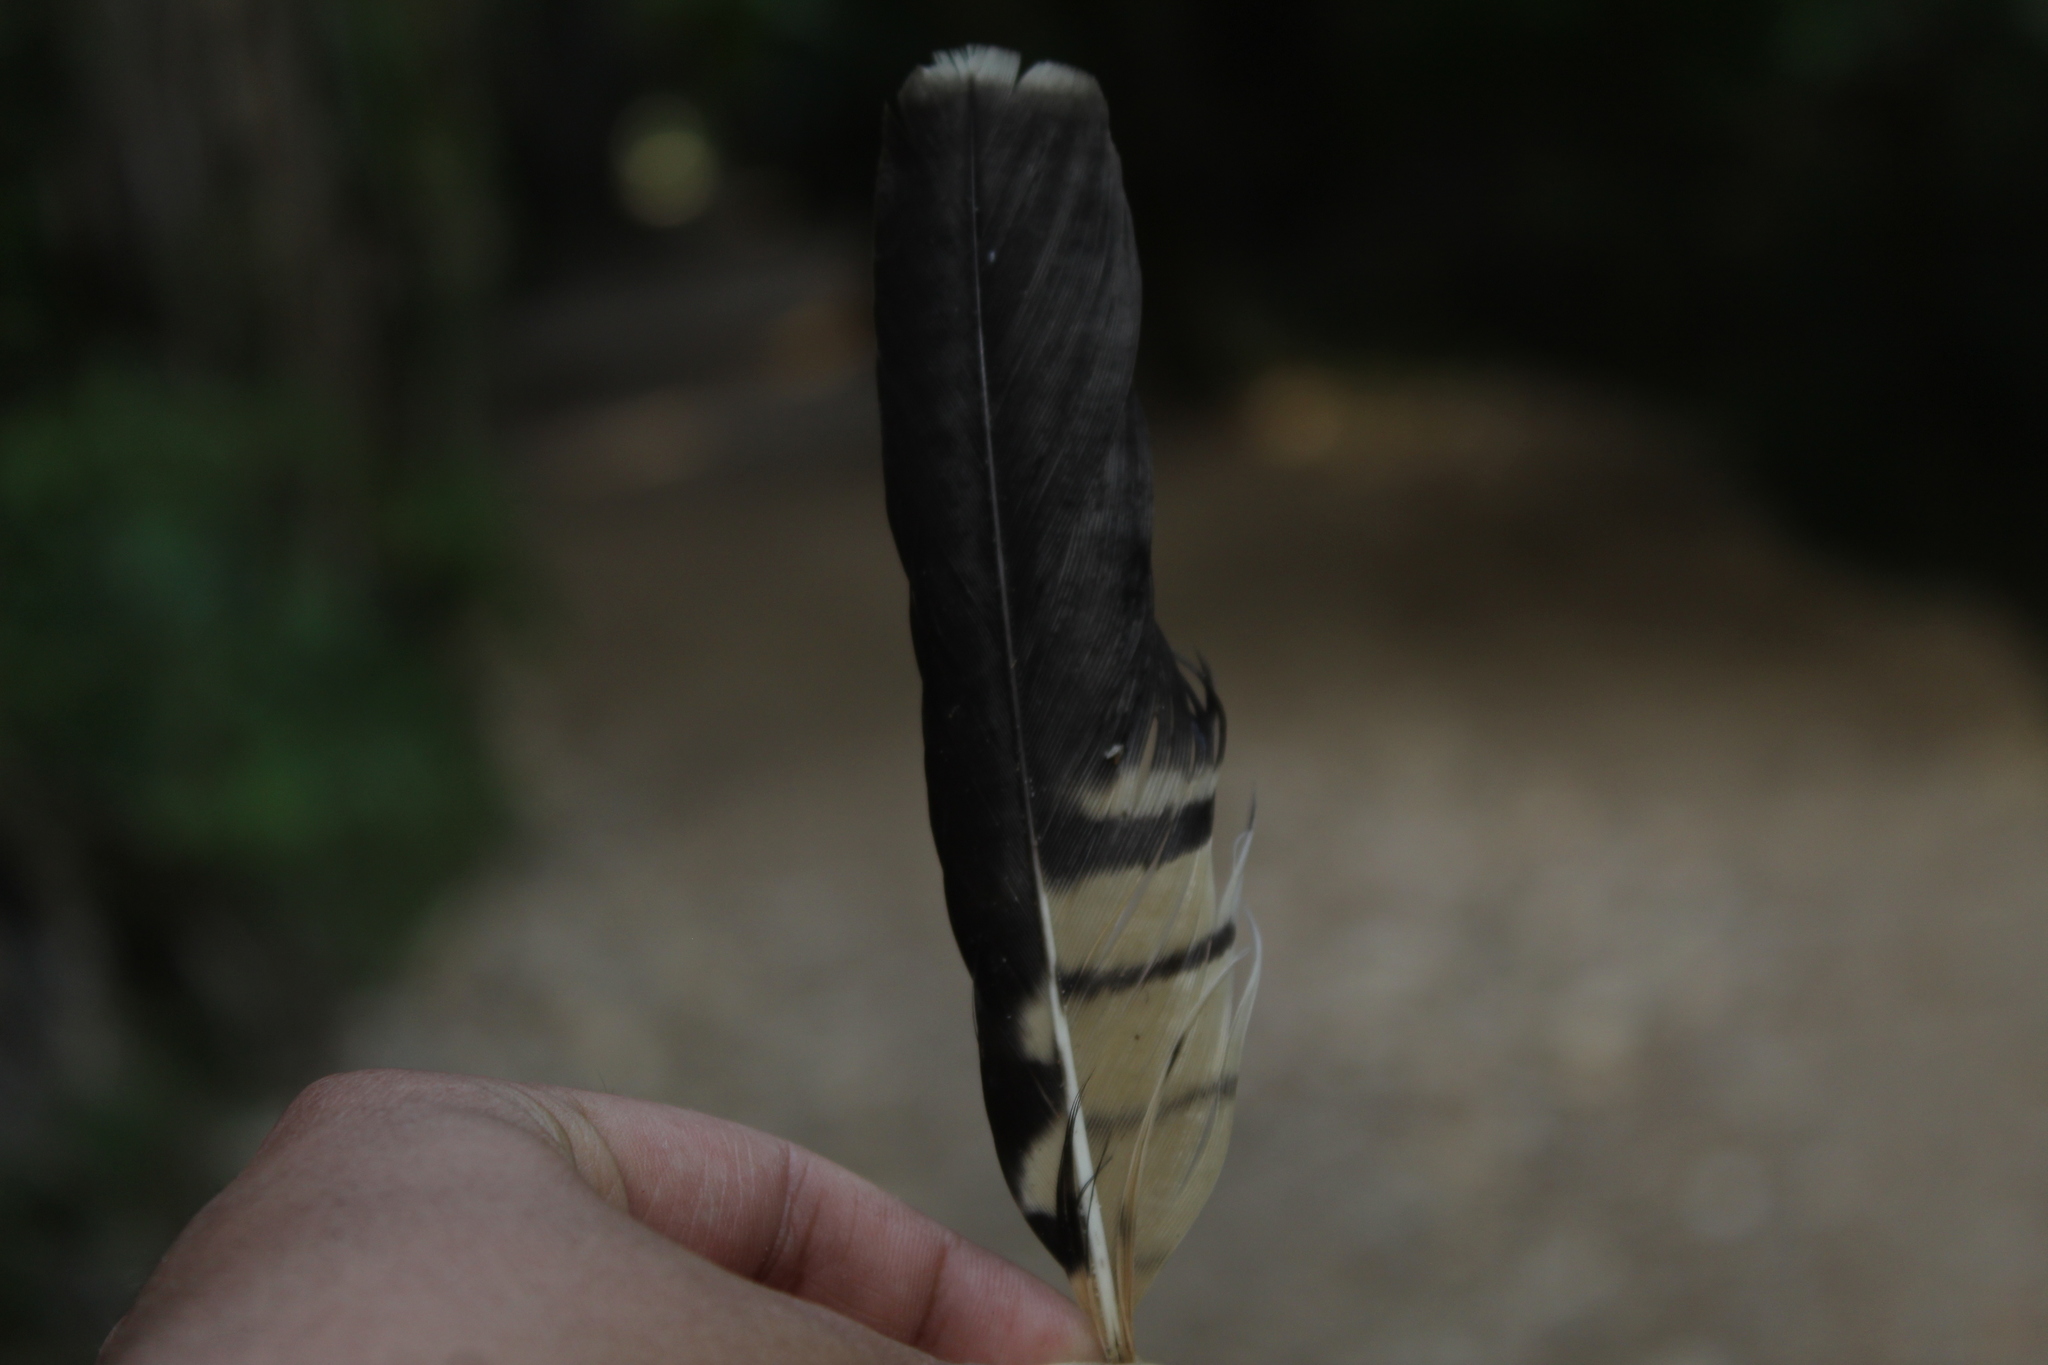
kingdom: Animalia
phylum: Chordata
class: Aves
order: Falconiformes
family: Falconidae
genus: Daptrius
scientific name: Daptrius
